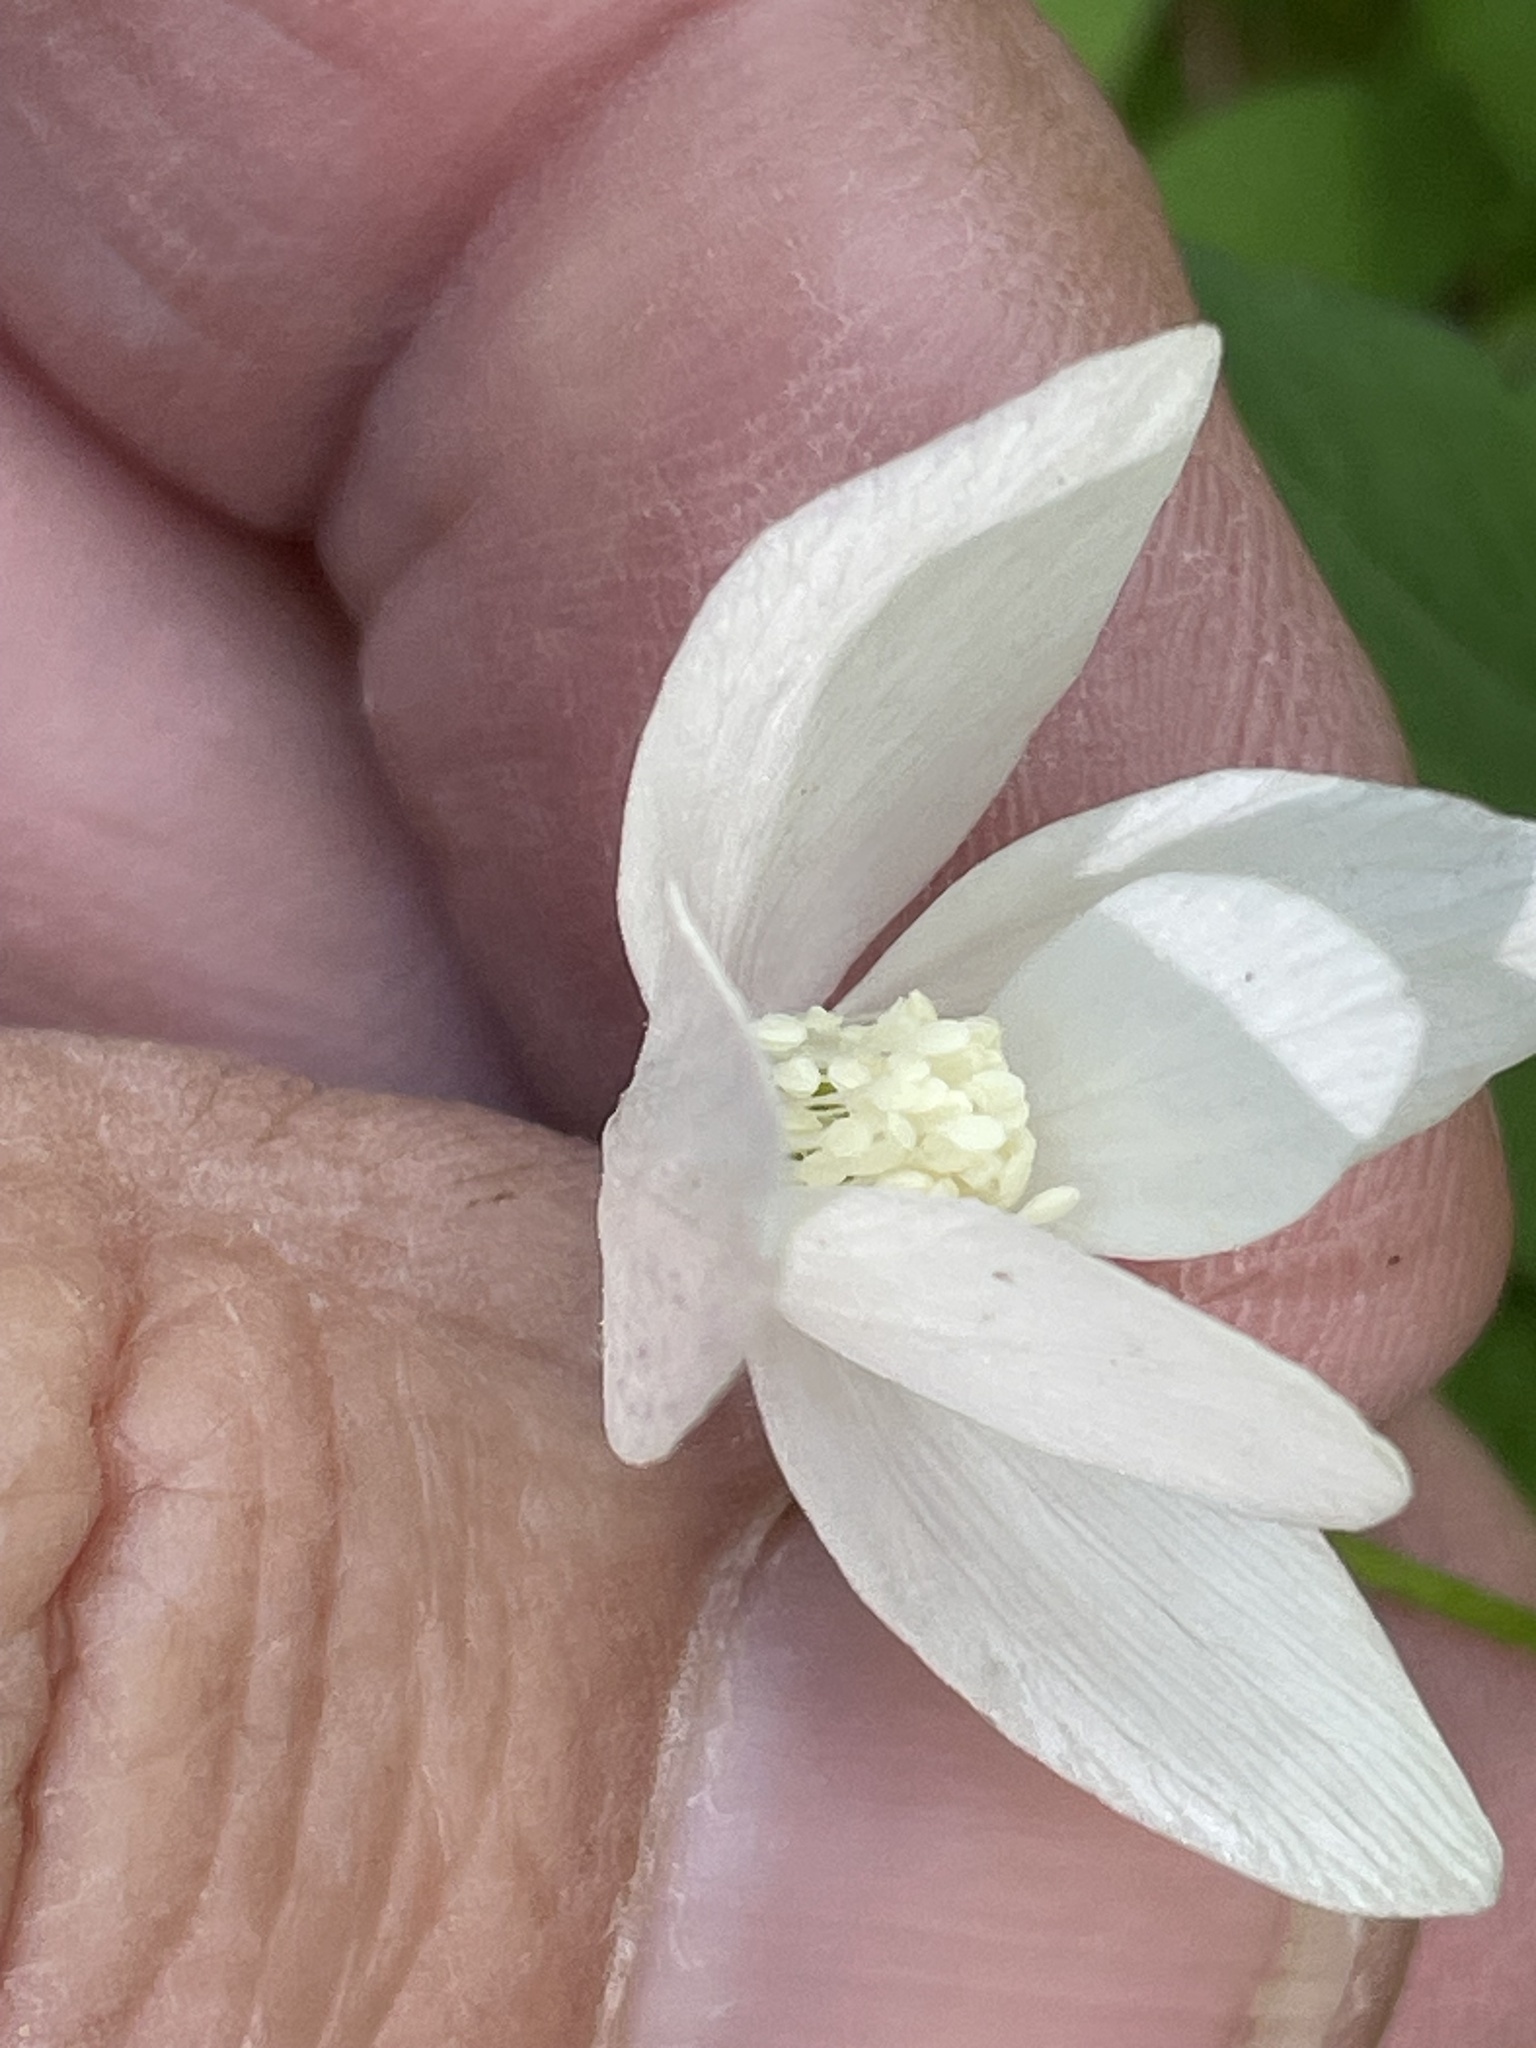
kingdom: Plantae
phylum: Tracheophyta
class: Magnoliopsida
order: Ranunculales
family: Ranunculaceae
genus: Anemone
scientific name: Anemone quinquefolia
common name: Wood anemone
